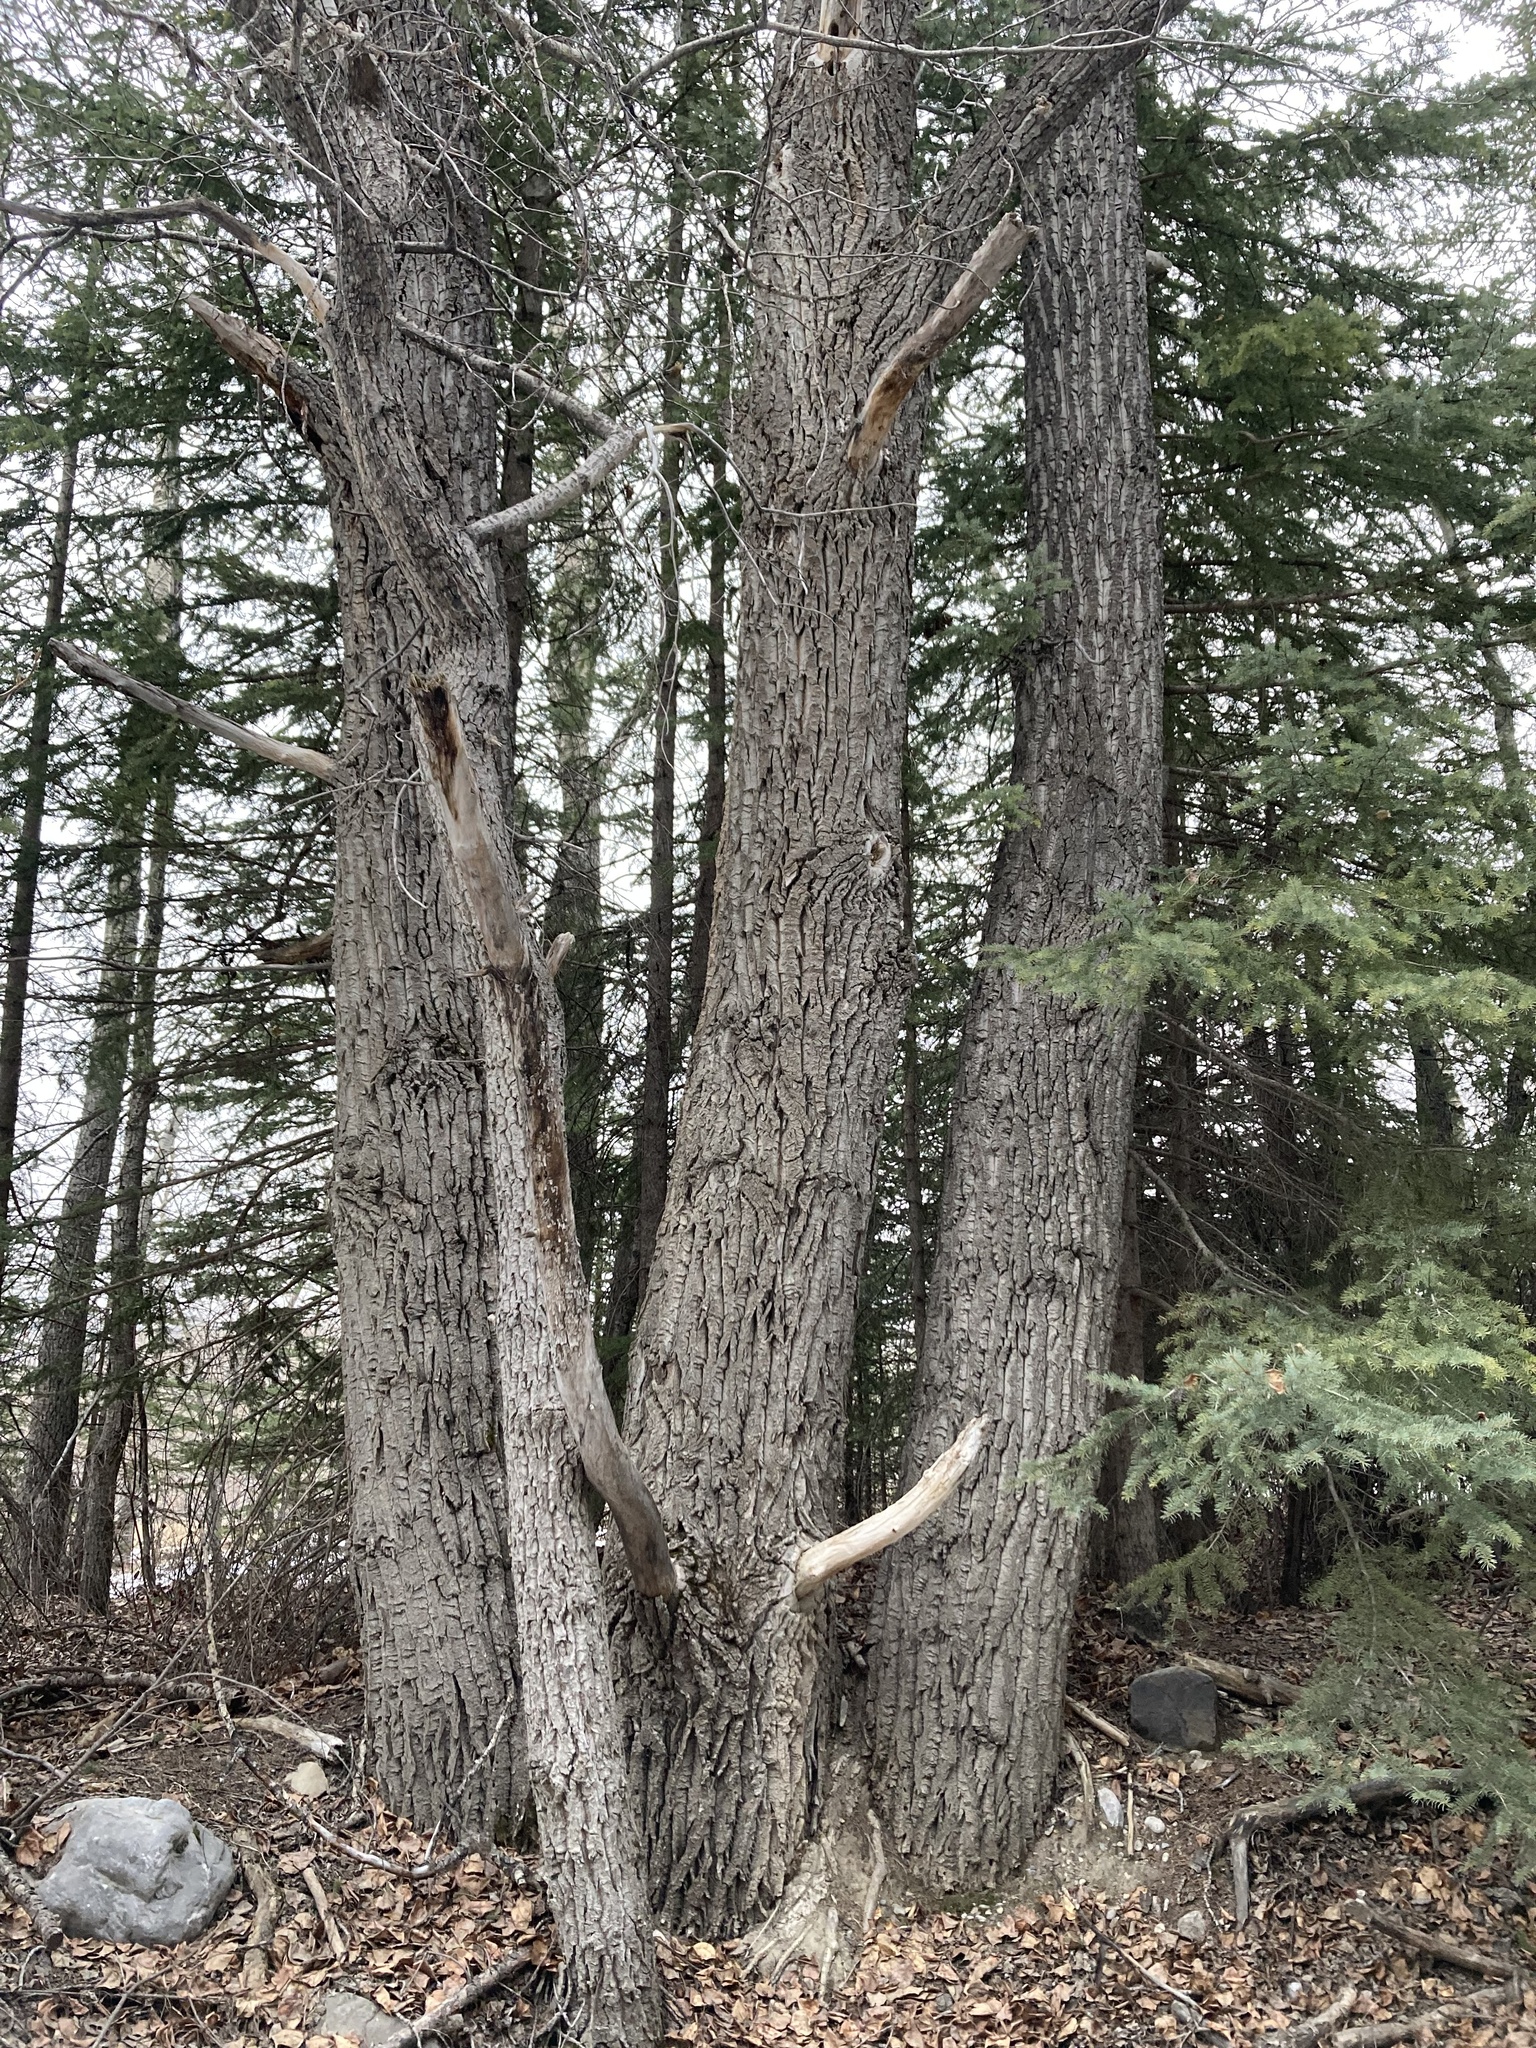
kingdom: Plantae
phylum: Tracheophyta
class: Magnoliopsida
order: Malpighiales
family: Salicaceae
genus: Populus
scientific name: Populus balsamifera
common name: Balsam poplar
